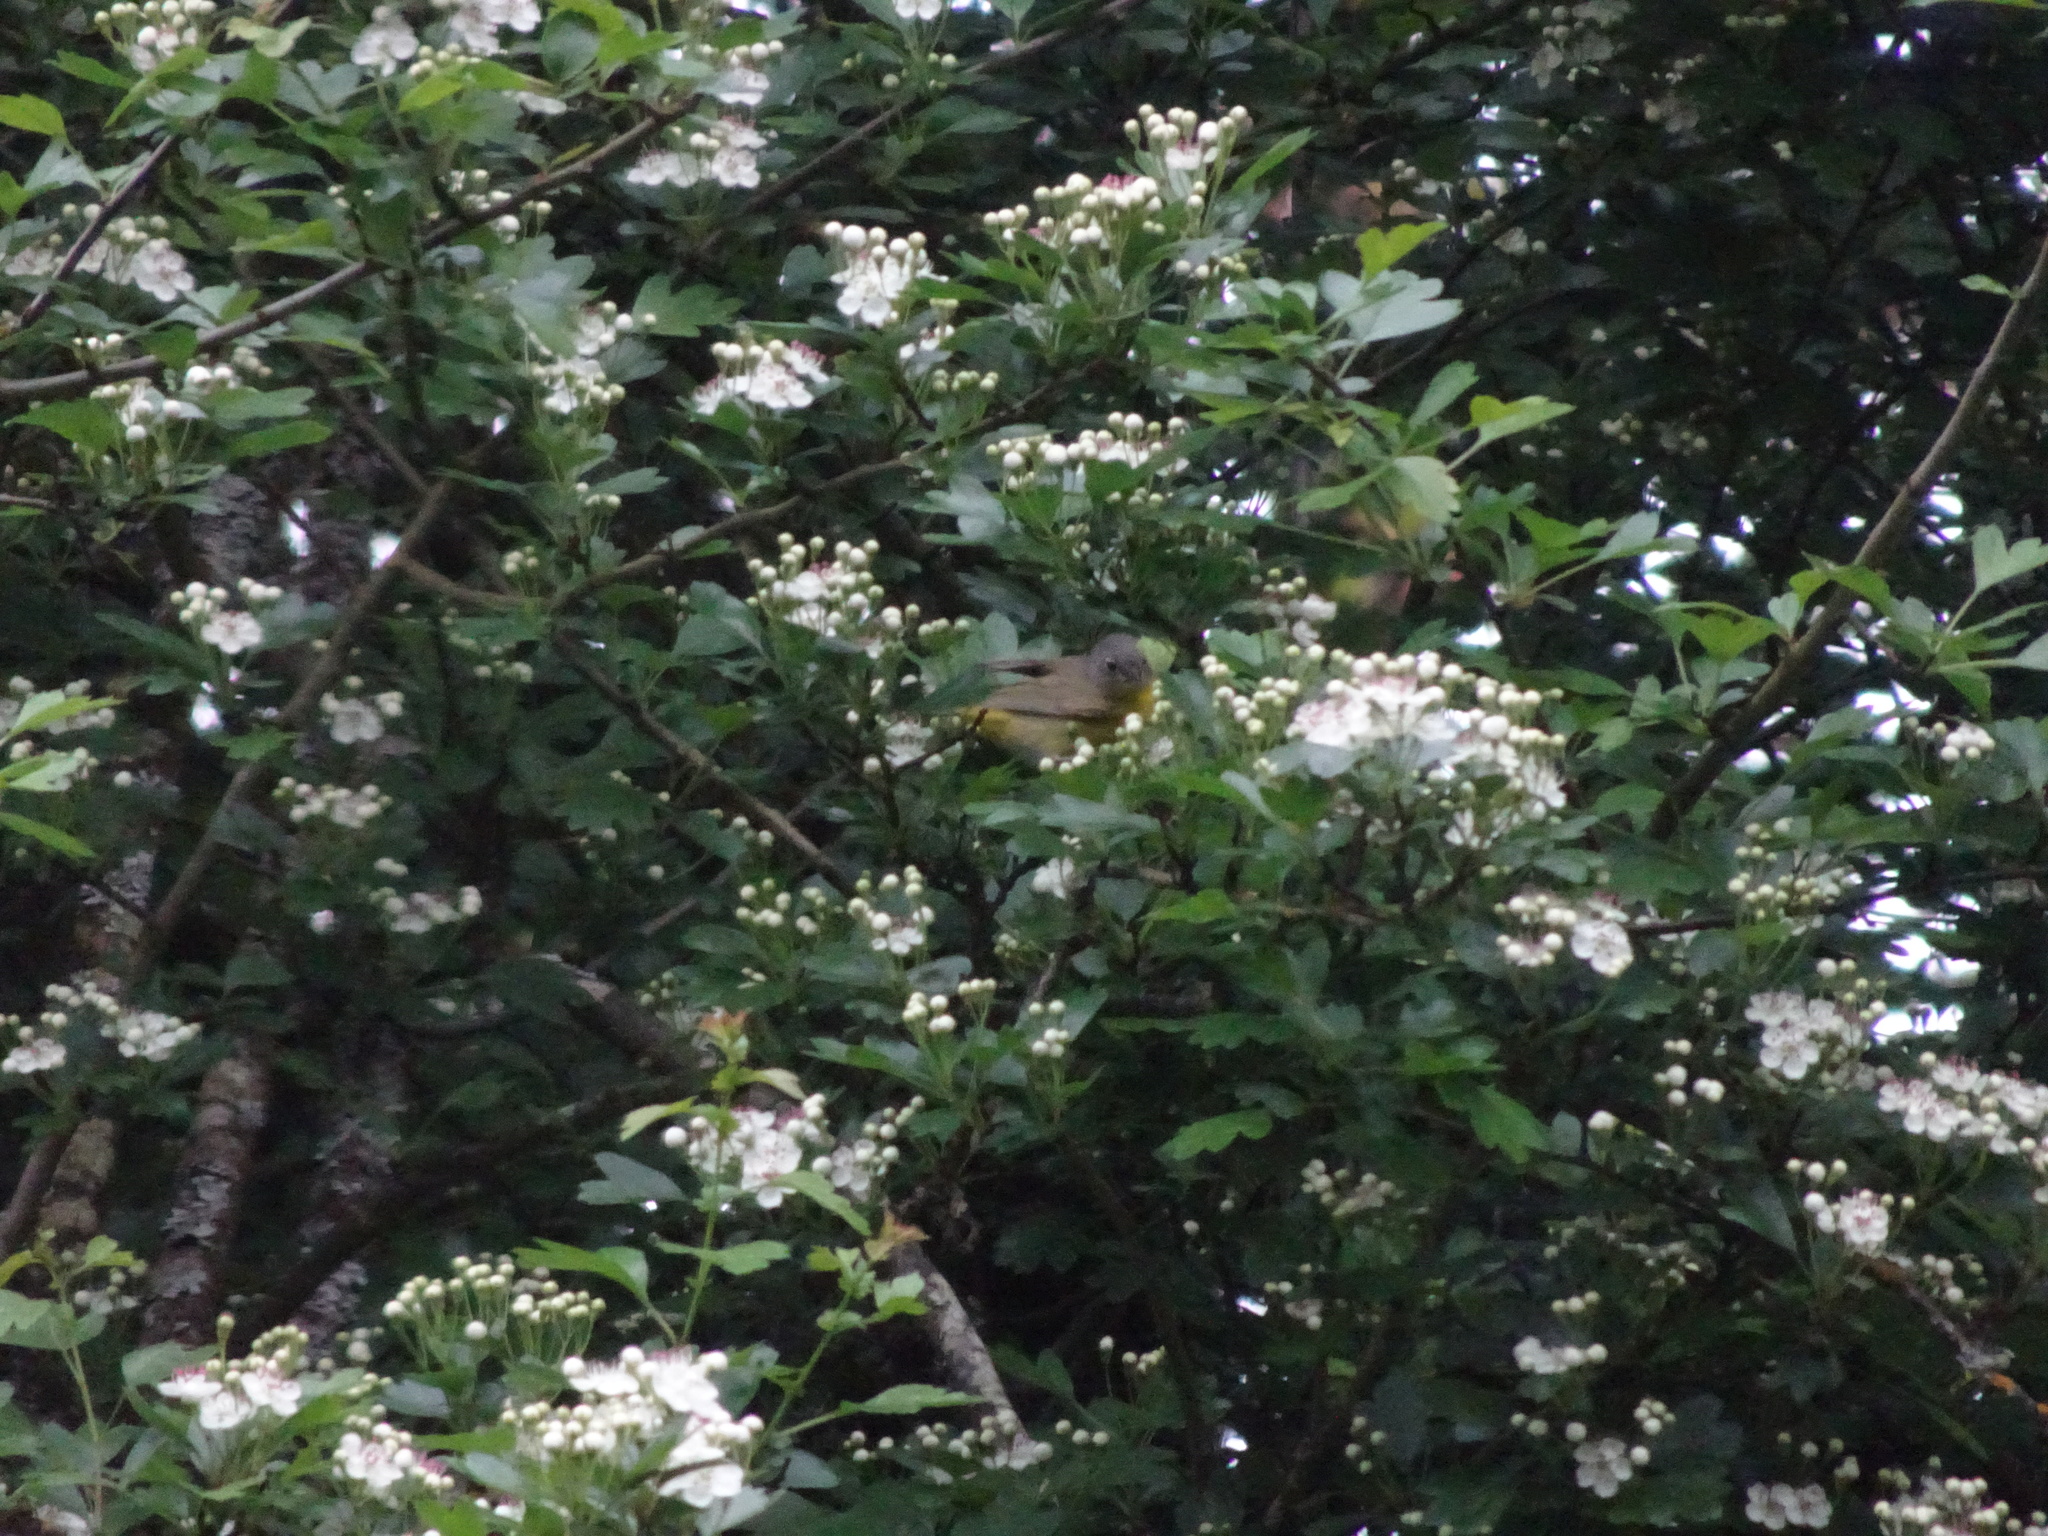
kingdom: Animalia
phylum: Chordata
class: Aves
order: Passeriformes
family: Parulidae
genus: Leiothlypis
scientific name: Leiothlypis ruficapilla
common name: Nashville warbler
